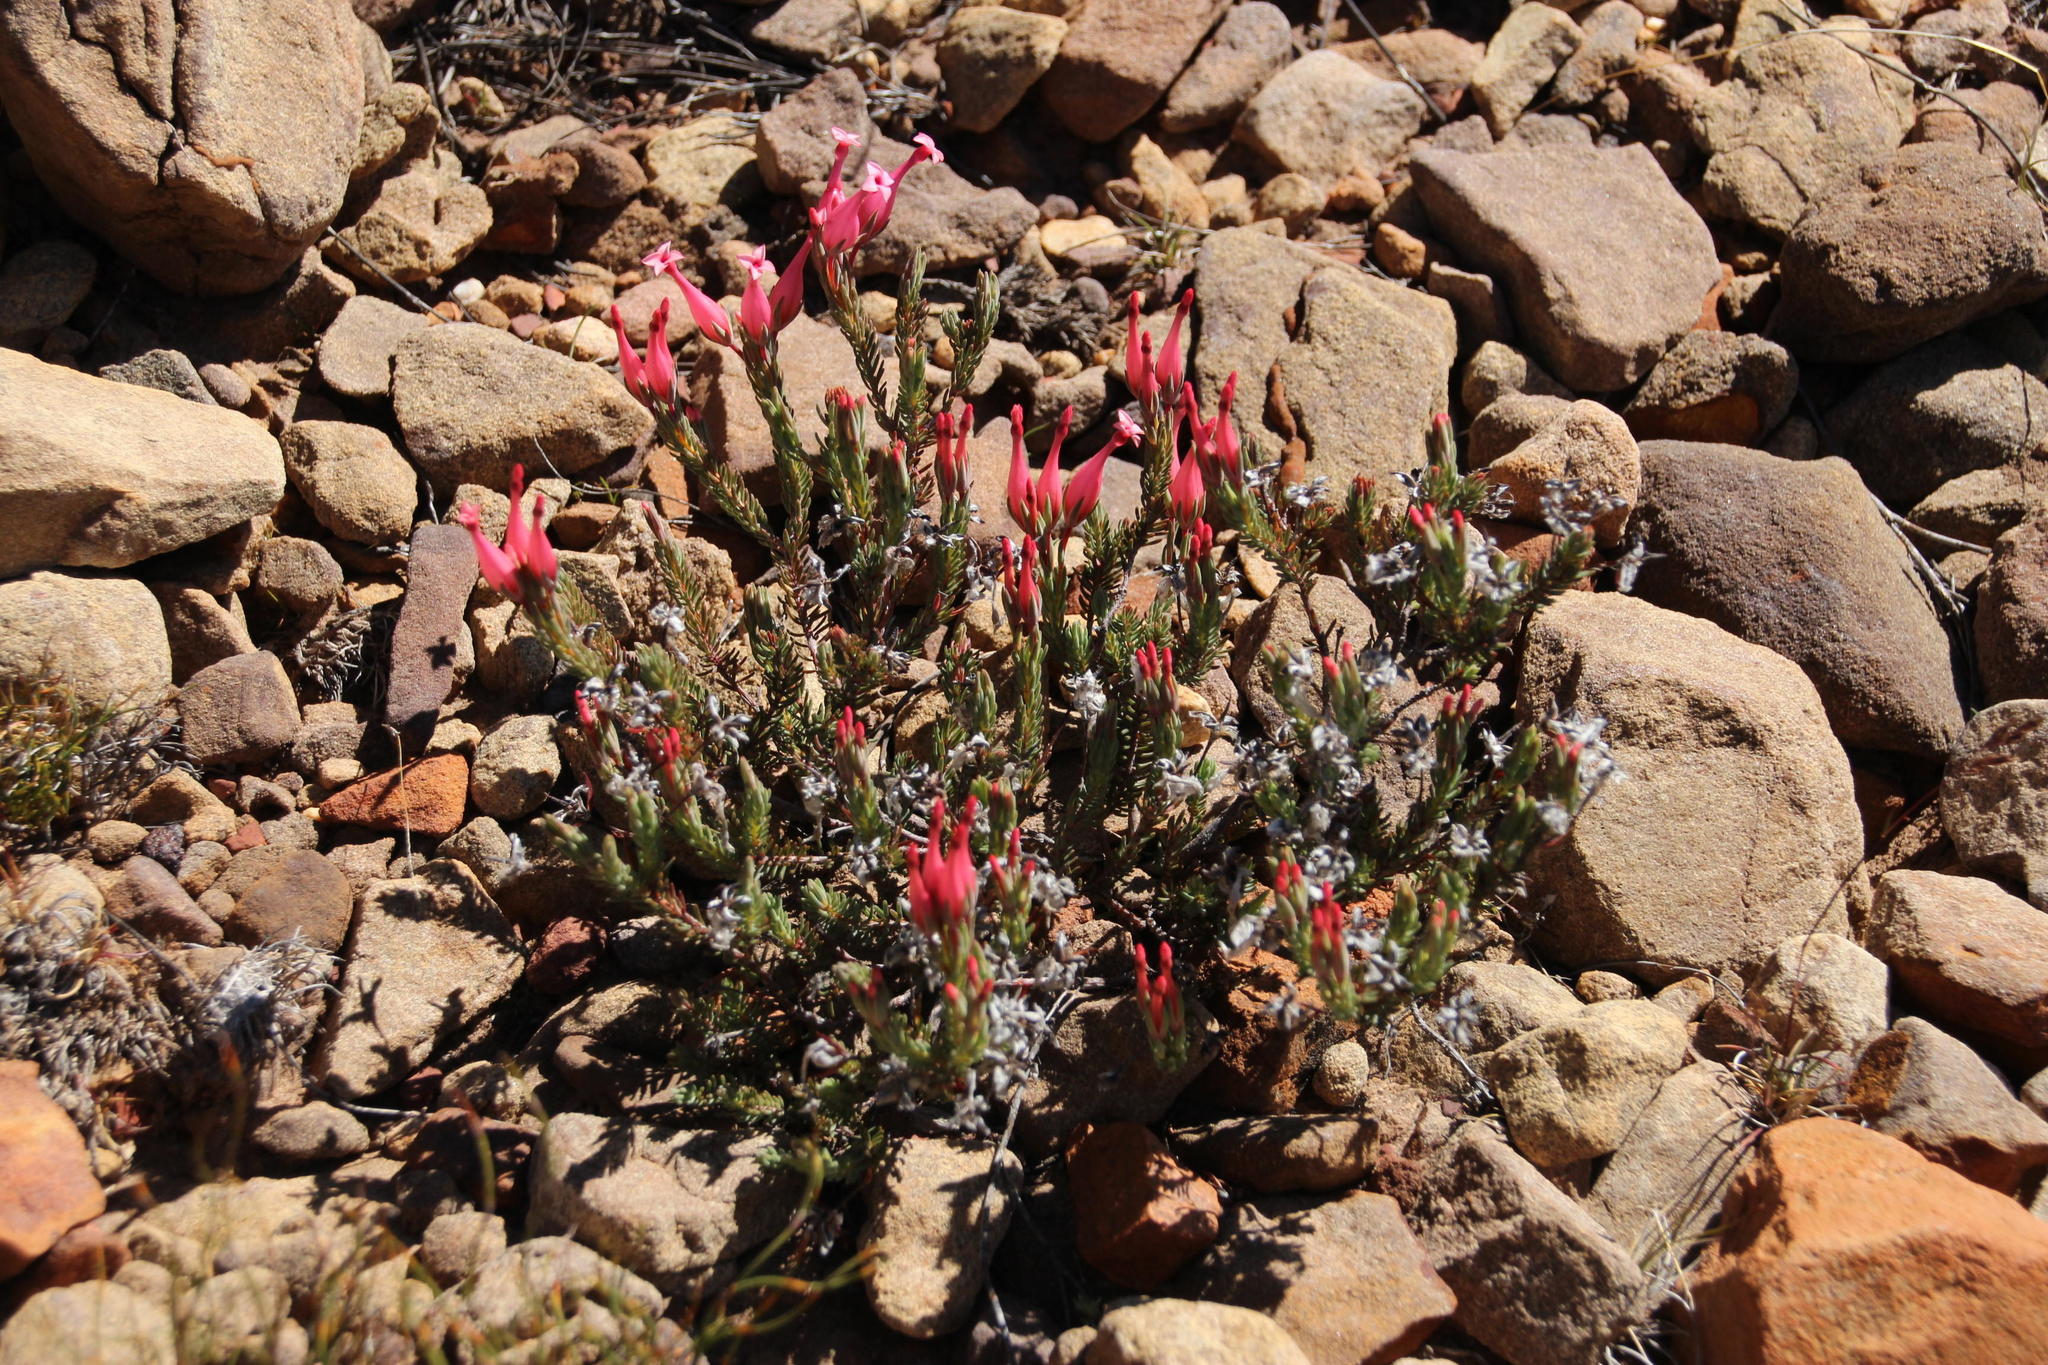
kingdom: Plantae
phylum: Tracheophyta
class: Magnoliopsida
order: Ericales
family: Ericaceae
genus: Erica
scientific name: Erica junonia
